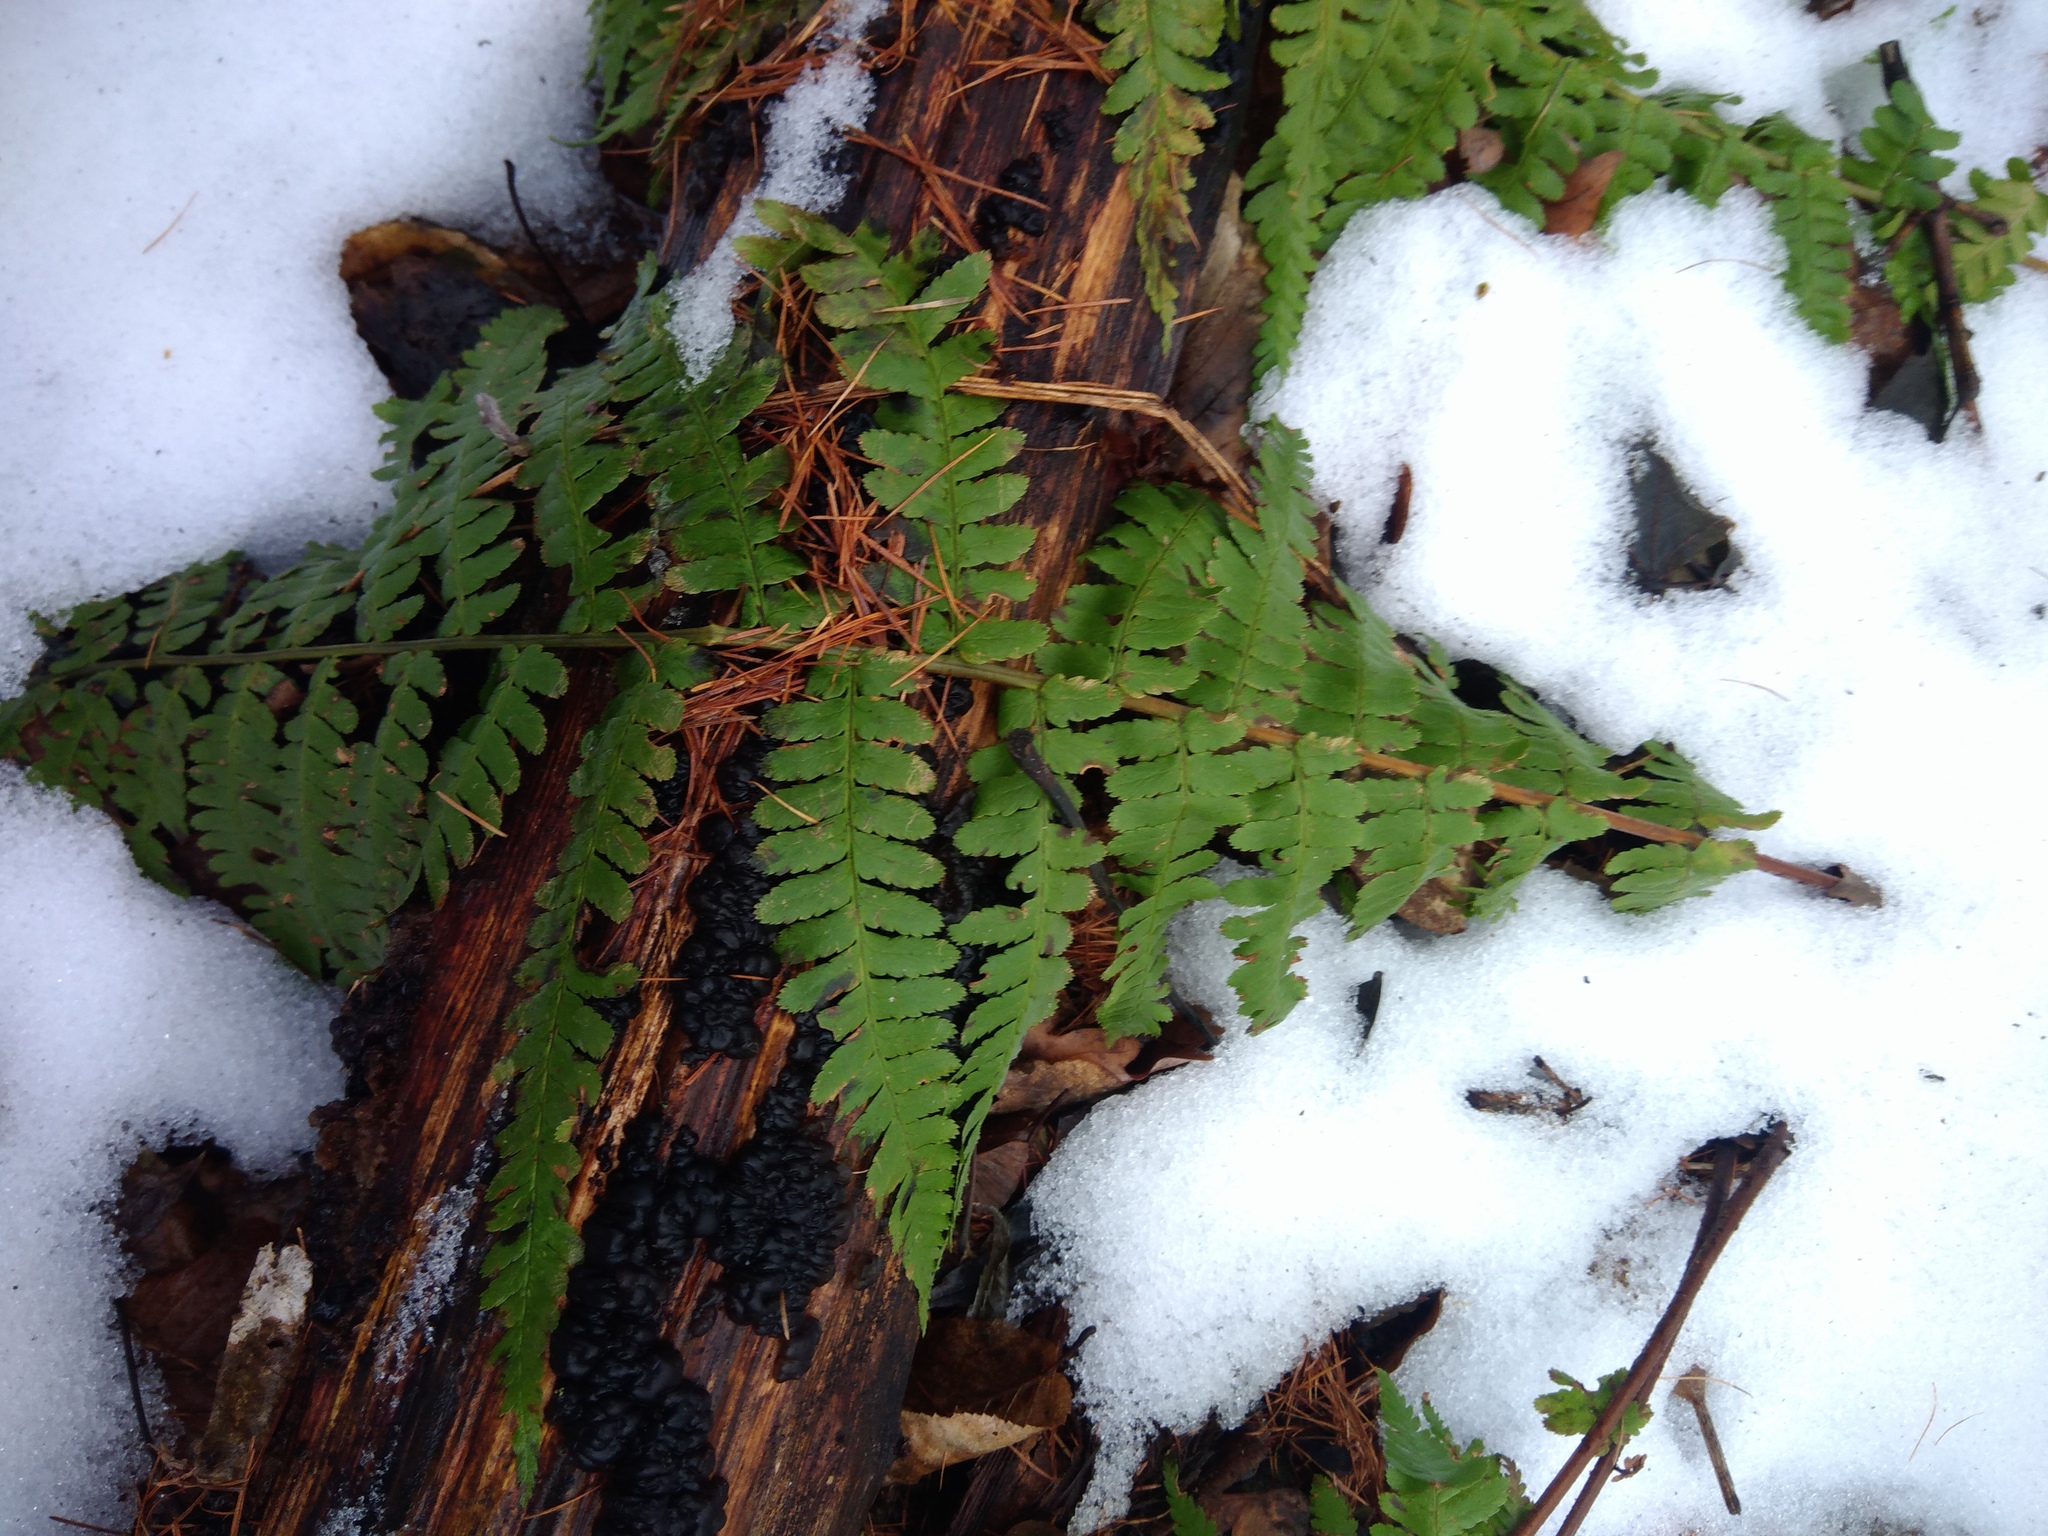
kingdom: Plantae
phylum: Tracheophyta
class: Polypodiopsida
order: Polypodiales
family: Dryopteridaceae
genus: Dryopteris
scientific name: Dryopteris filix-mas
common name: Male fern
